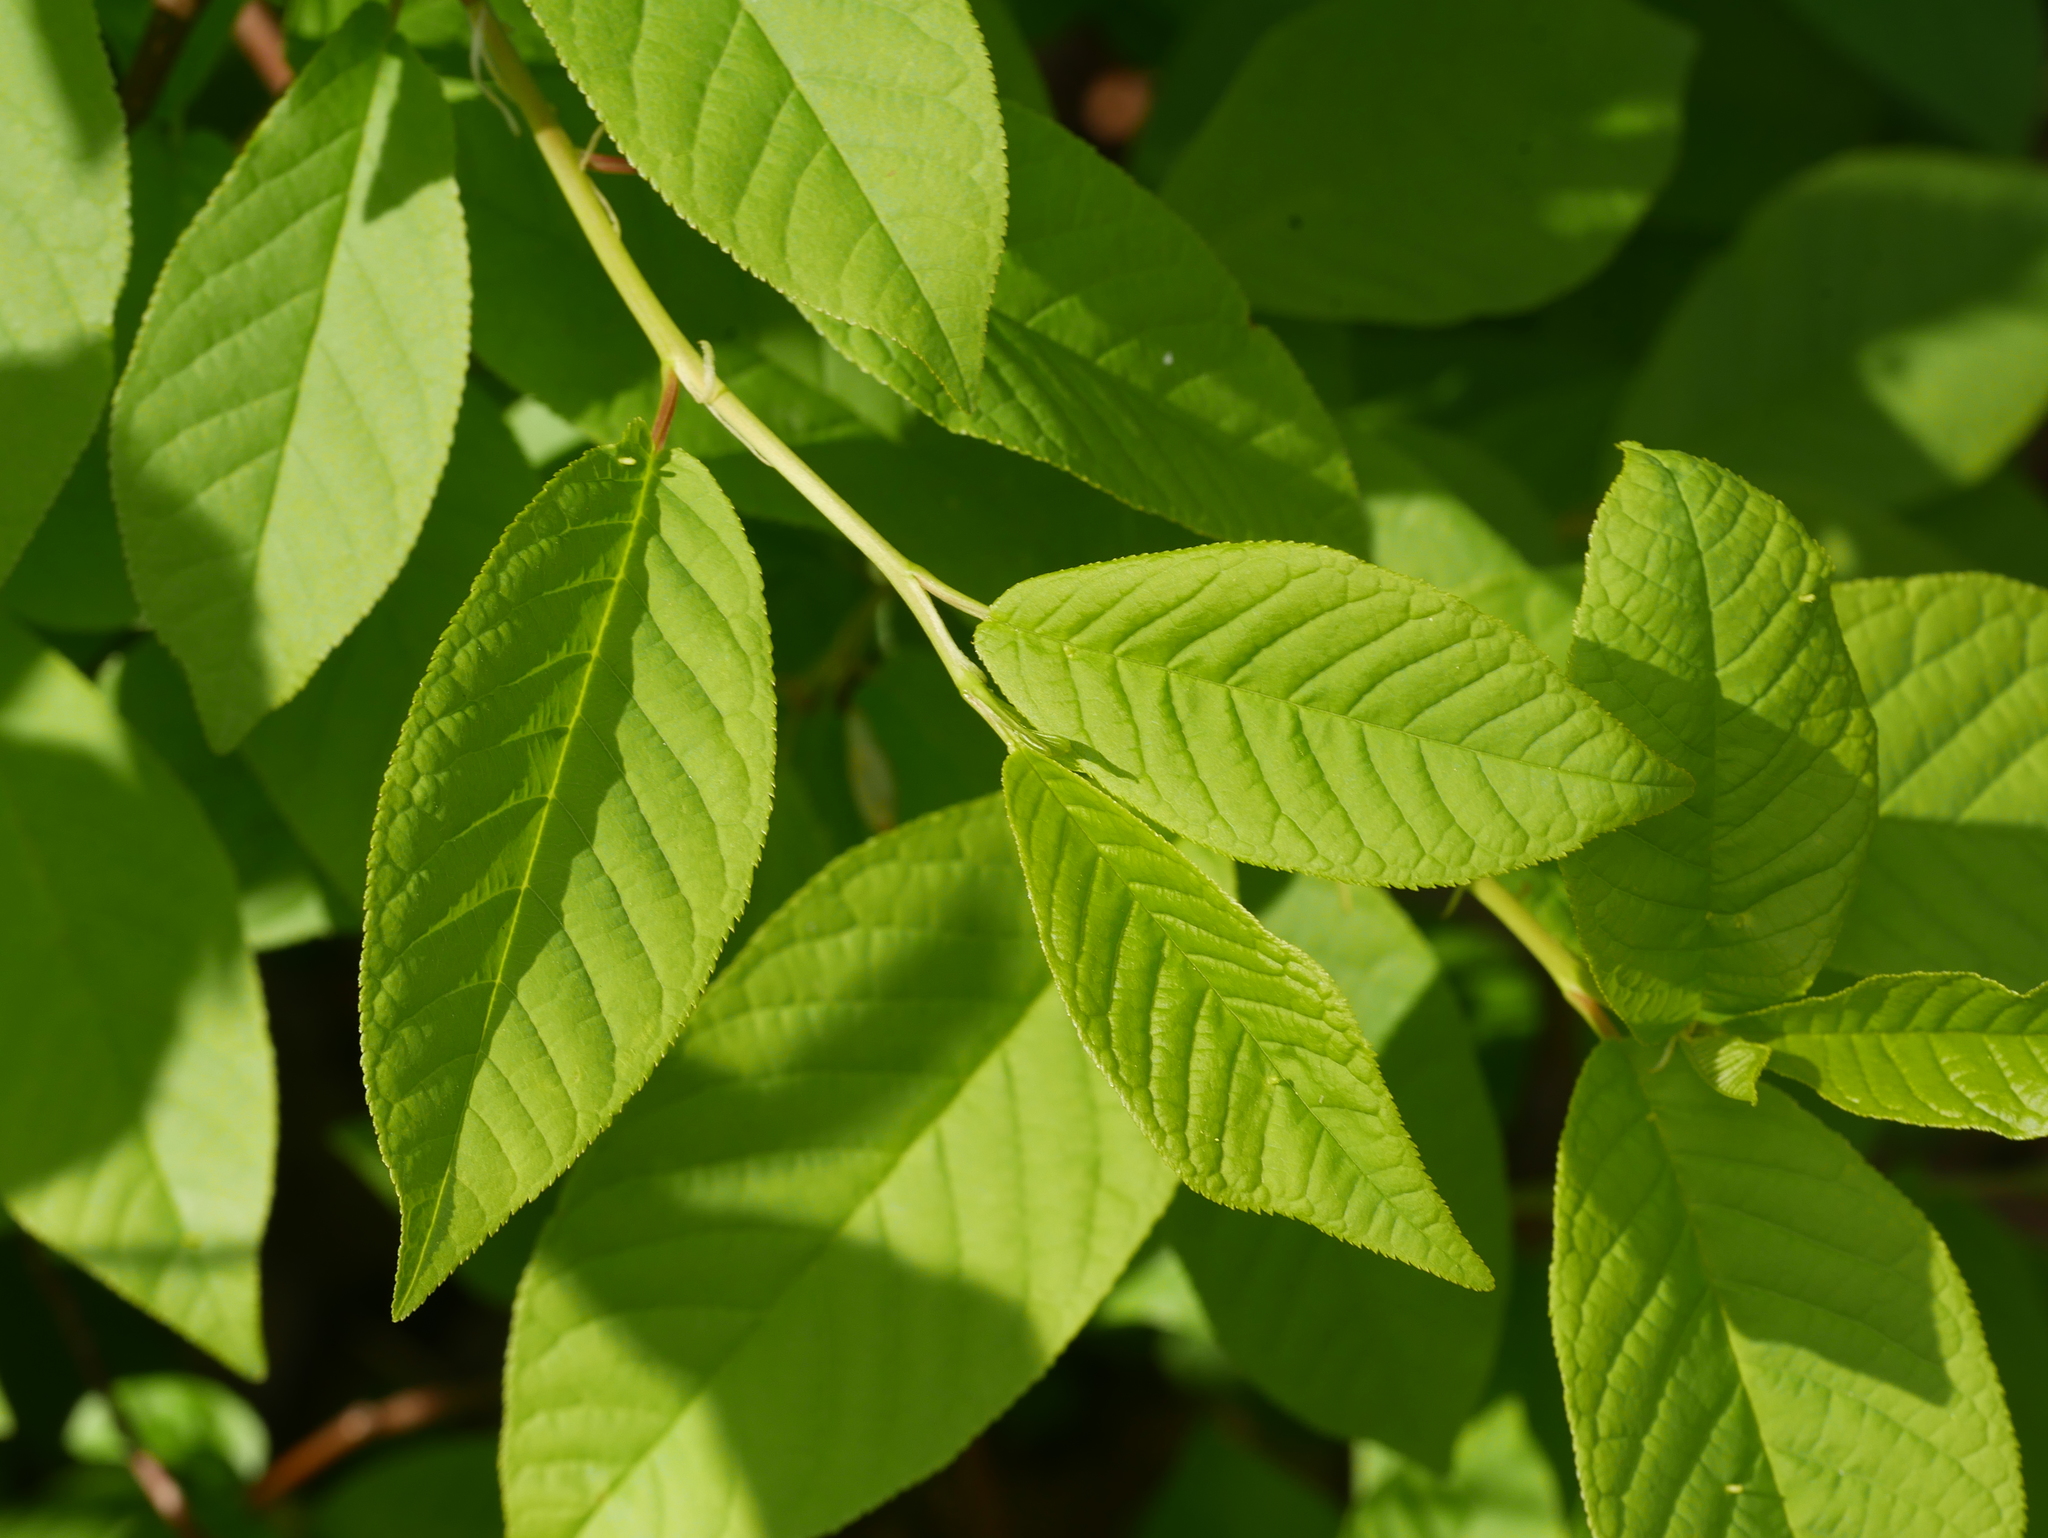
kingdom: Plantae
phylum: Tracheophyta
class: Magnoliopsida
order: Rosales
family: Rosaceae
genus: Prunus
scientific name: Prunus padus
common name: Bird cherry
